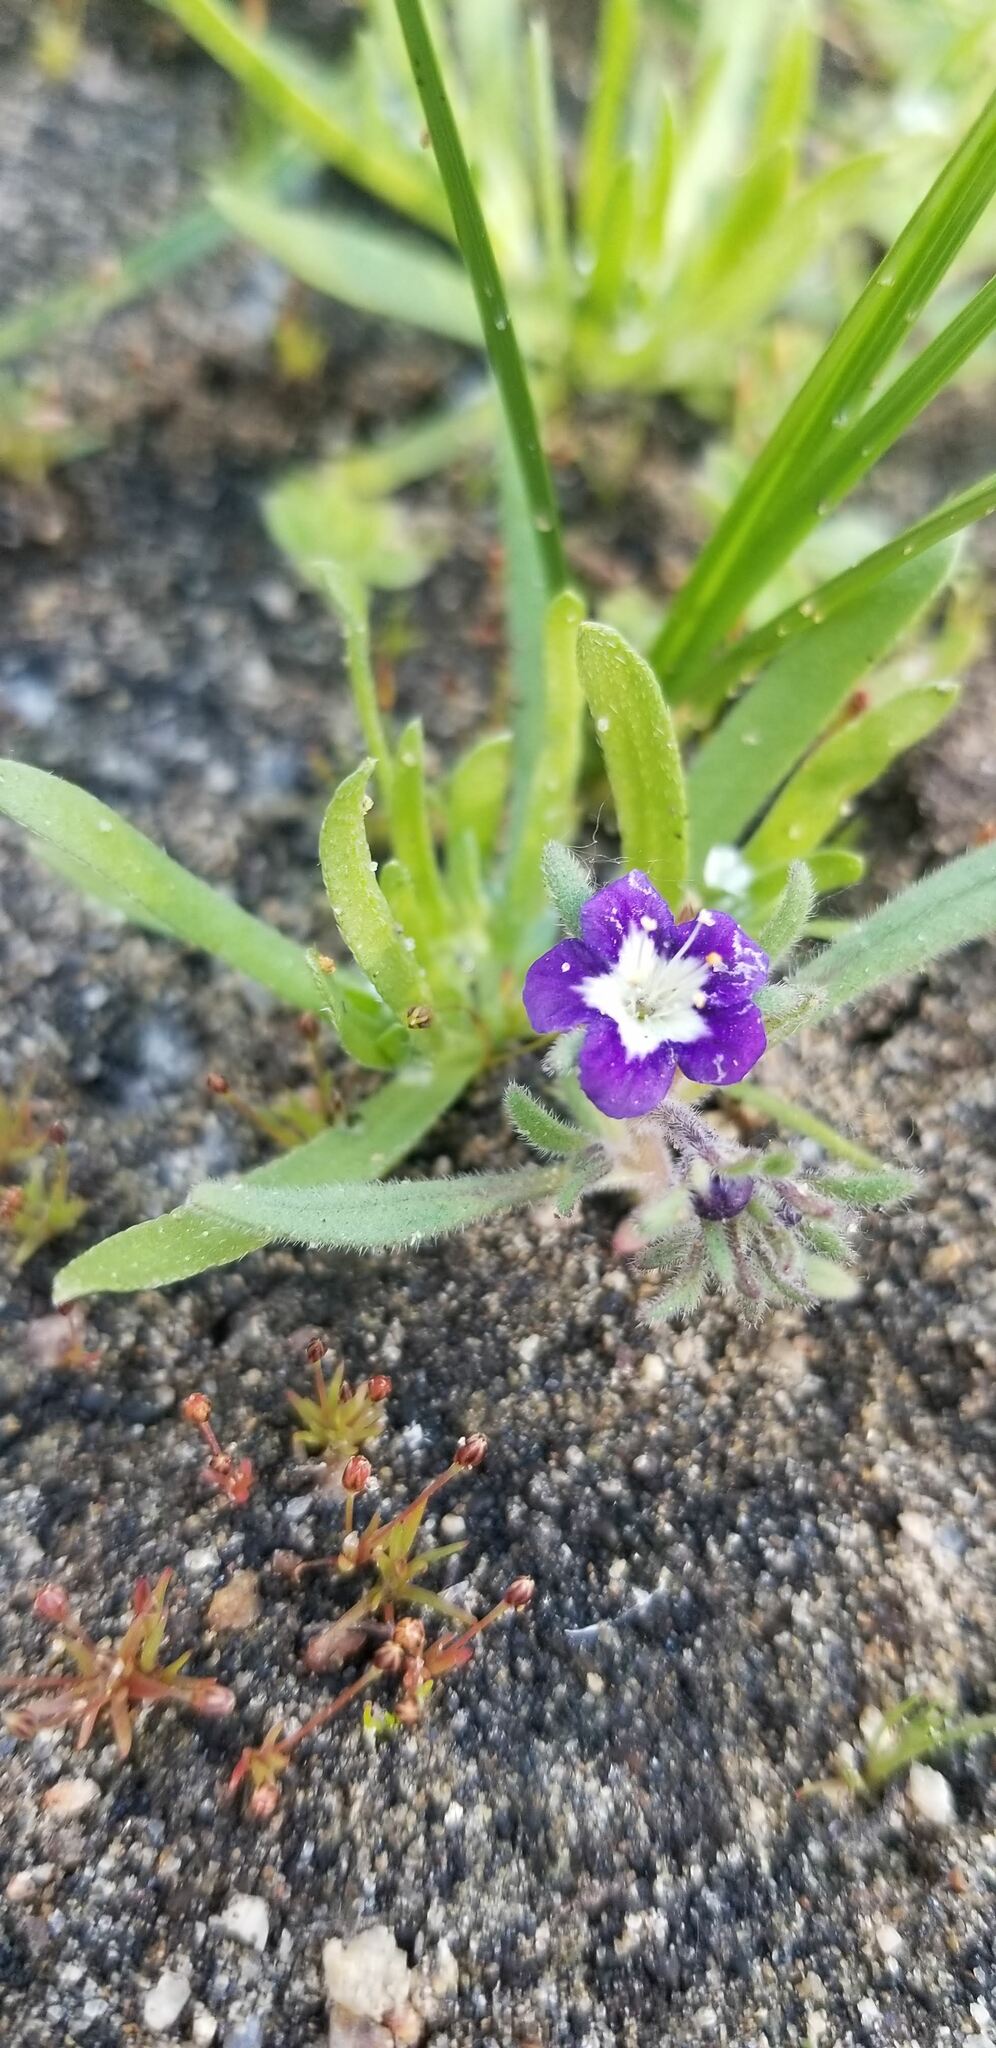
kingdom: Plantae
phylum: Tracheophyta
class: Magnoliopsida
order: Boraginales
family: Hydrophyllaceae
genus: Phacelia
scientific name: Phacelia orogenes
